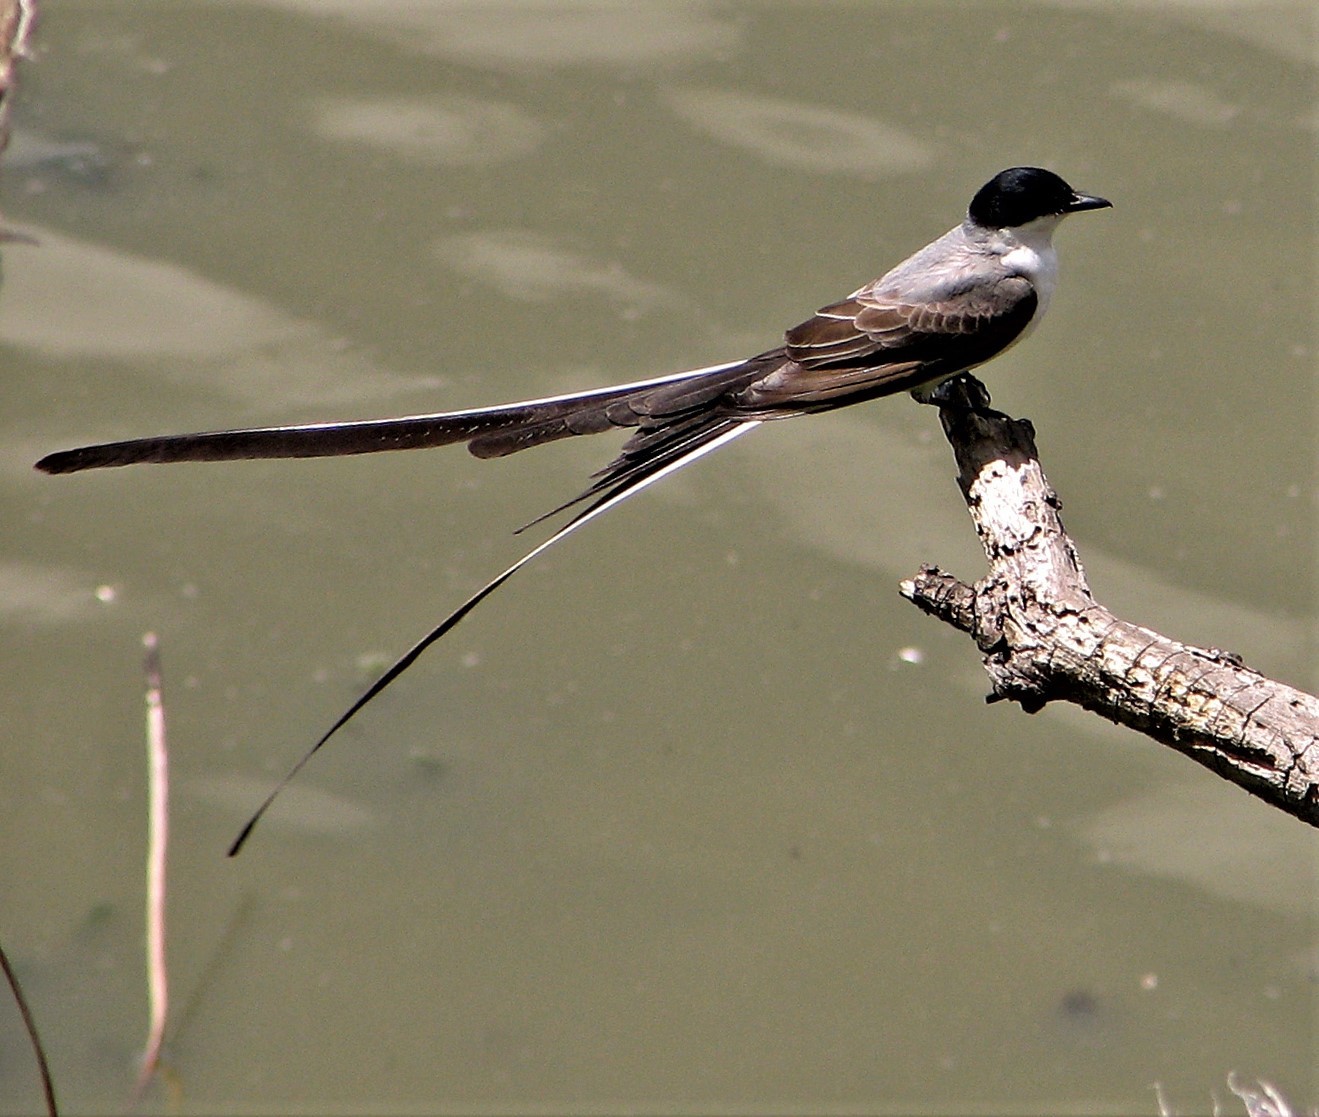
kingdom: Animalia
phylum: Chordata
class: Aves
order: Passeriformes
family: Tyrannidae
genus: Tyrannus
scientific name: Tyrannus savana
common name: Fork-tailed flycatcher
